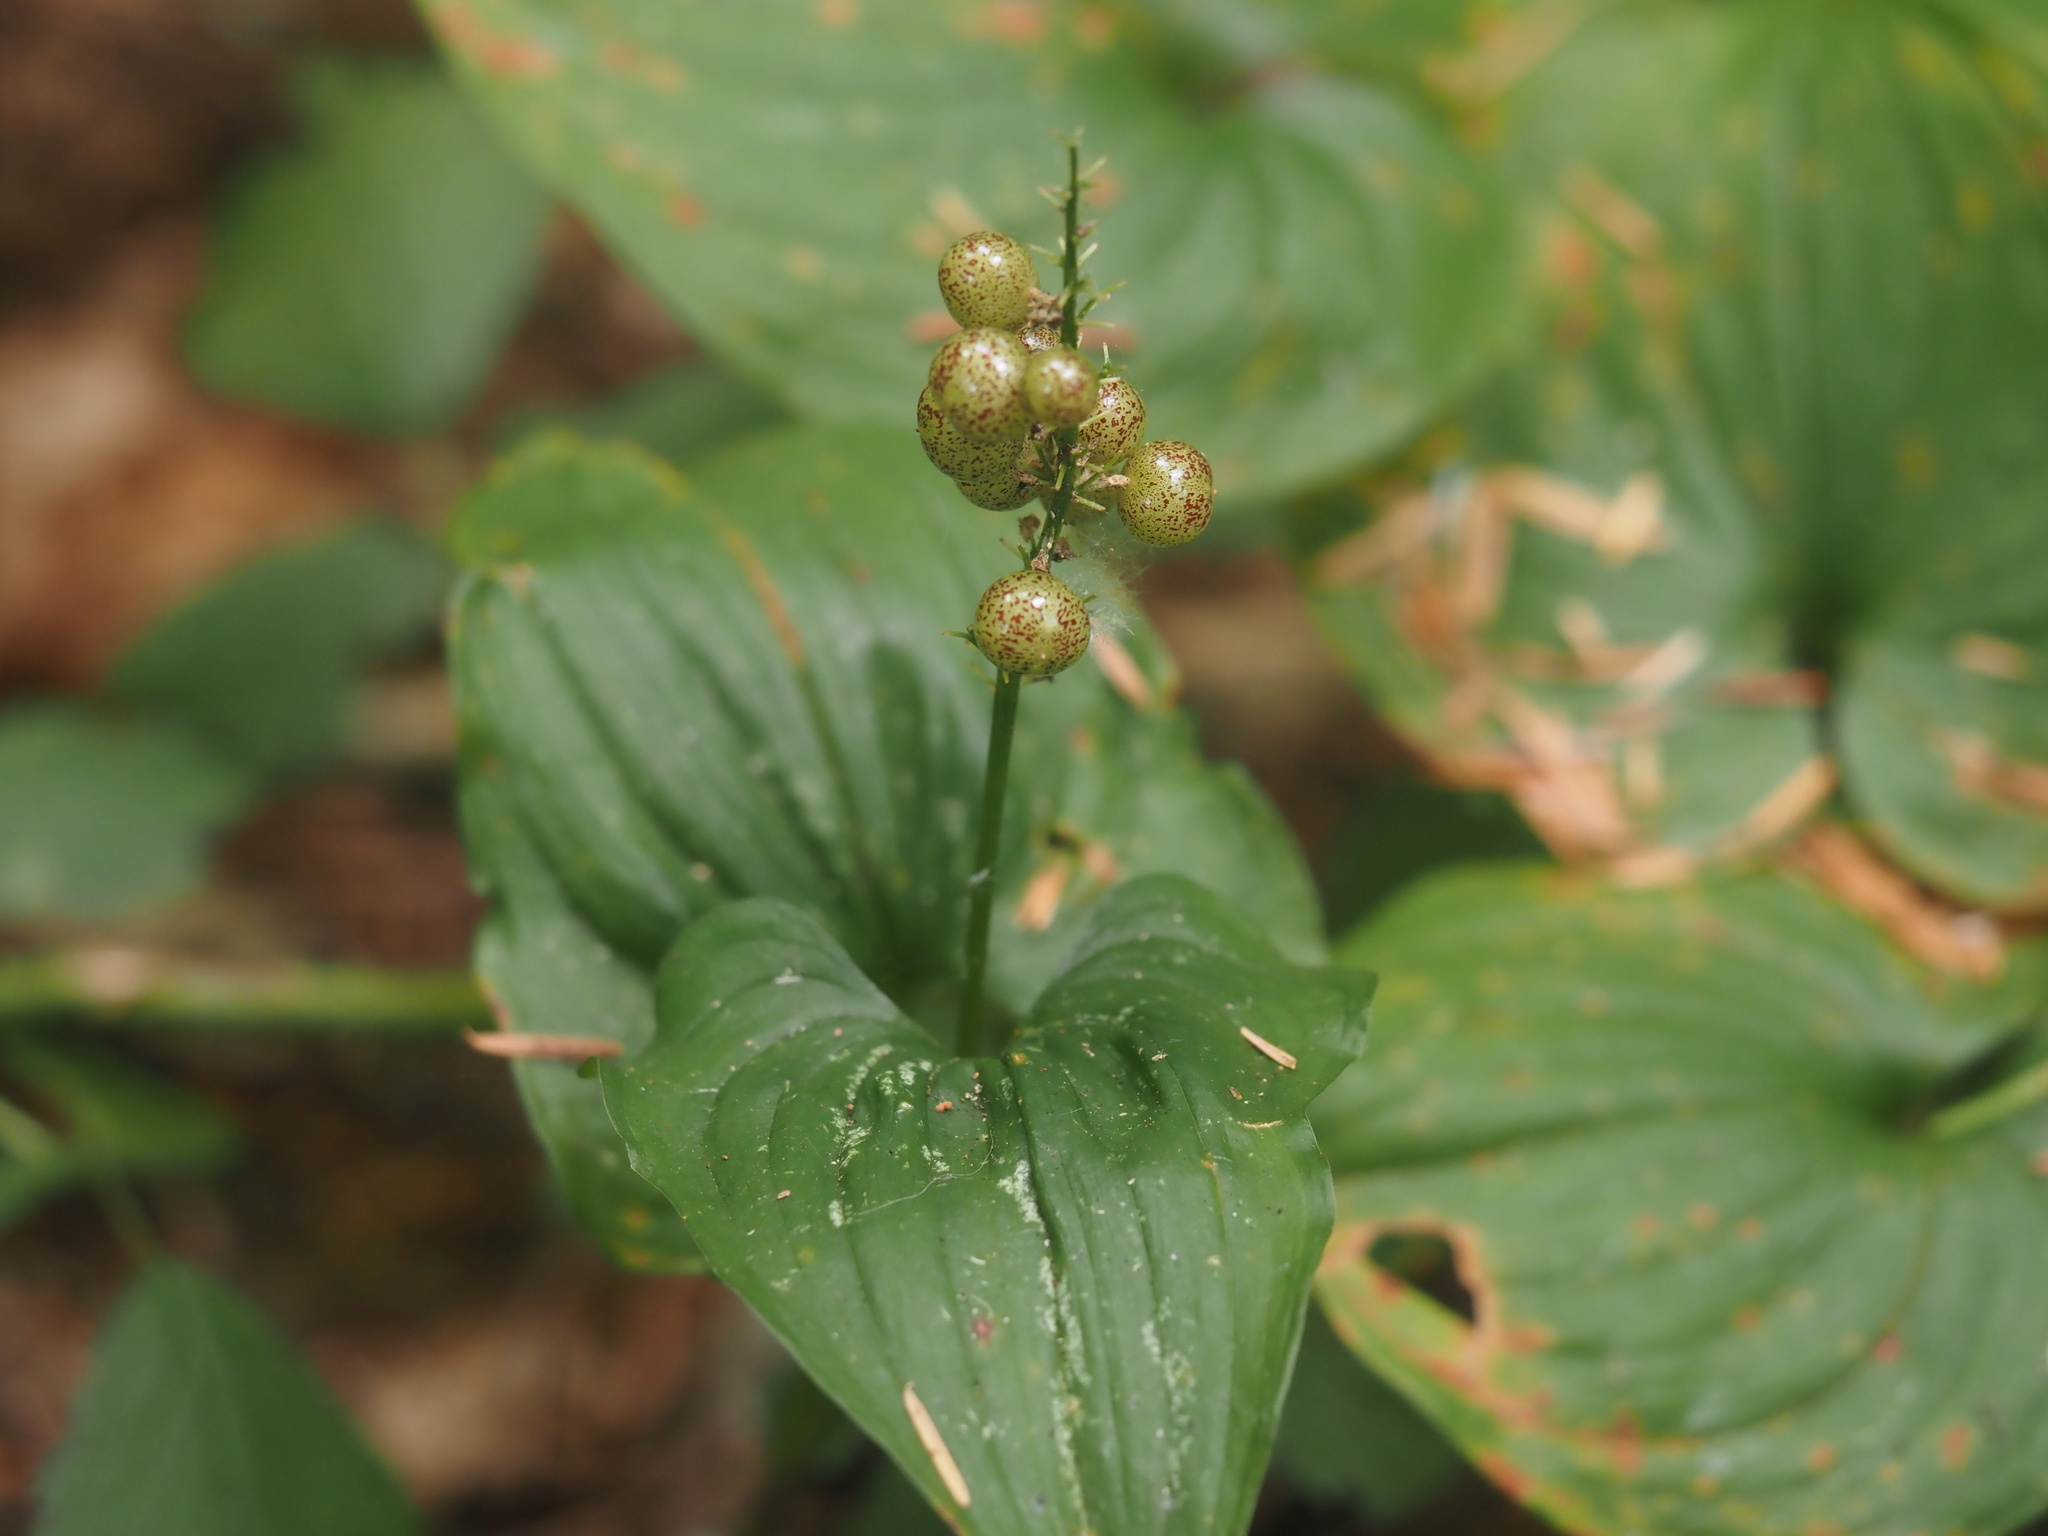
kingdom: Plantae
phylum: Tracheophyta
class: Liliopsida
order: Asparagales
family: Asparagaceae
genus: Maianthemum
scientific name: Maianthemum dilatatum
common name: False lily-of-the-valley
